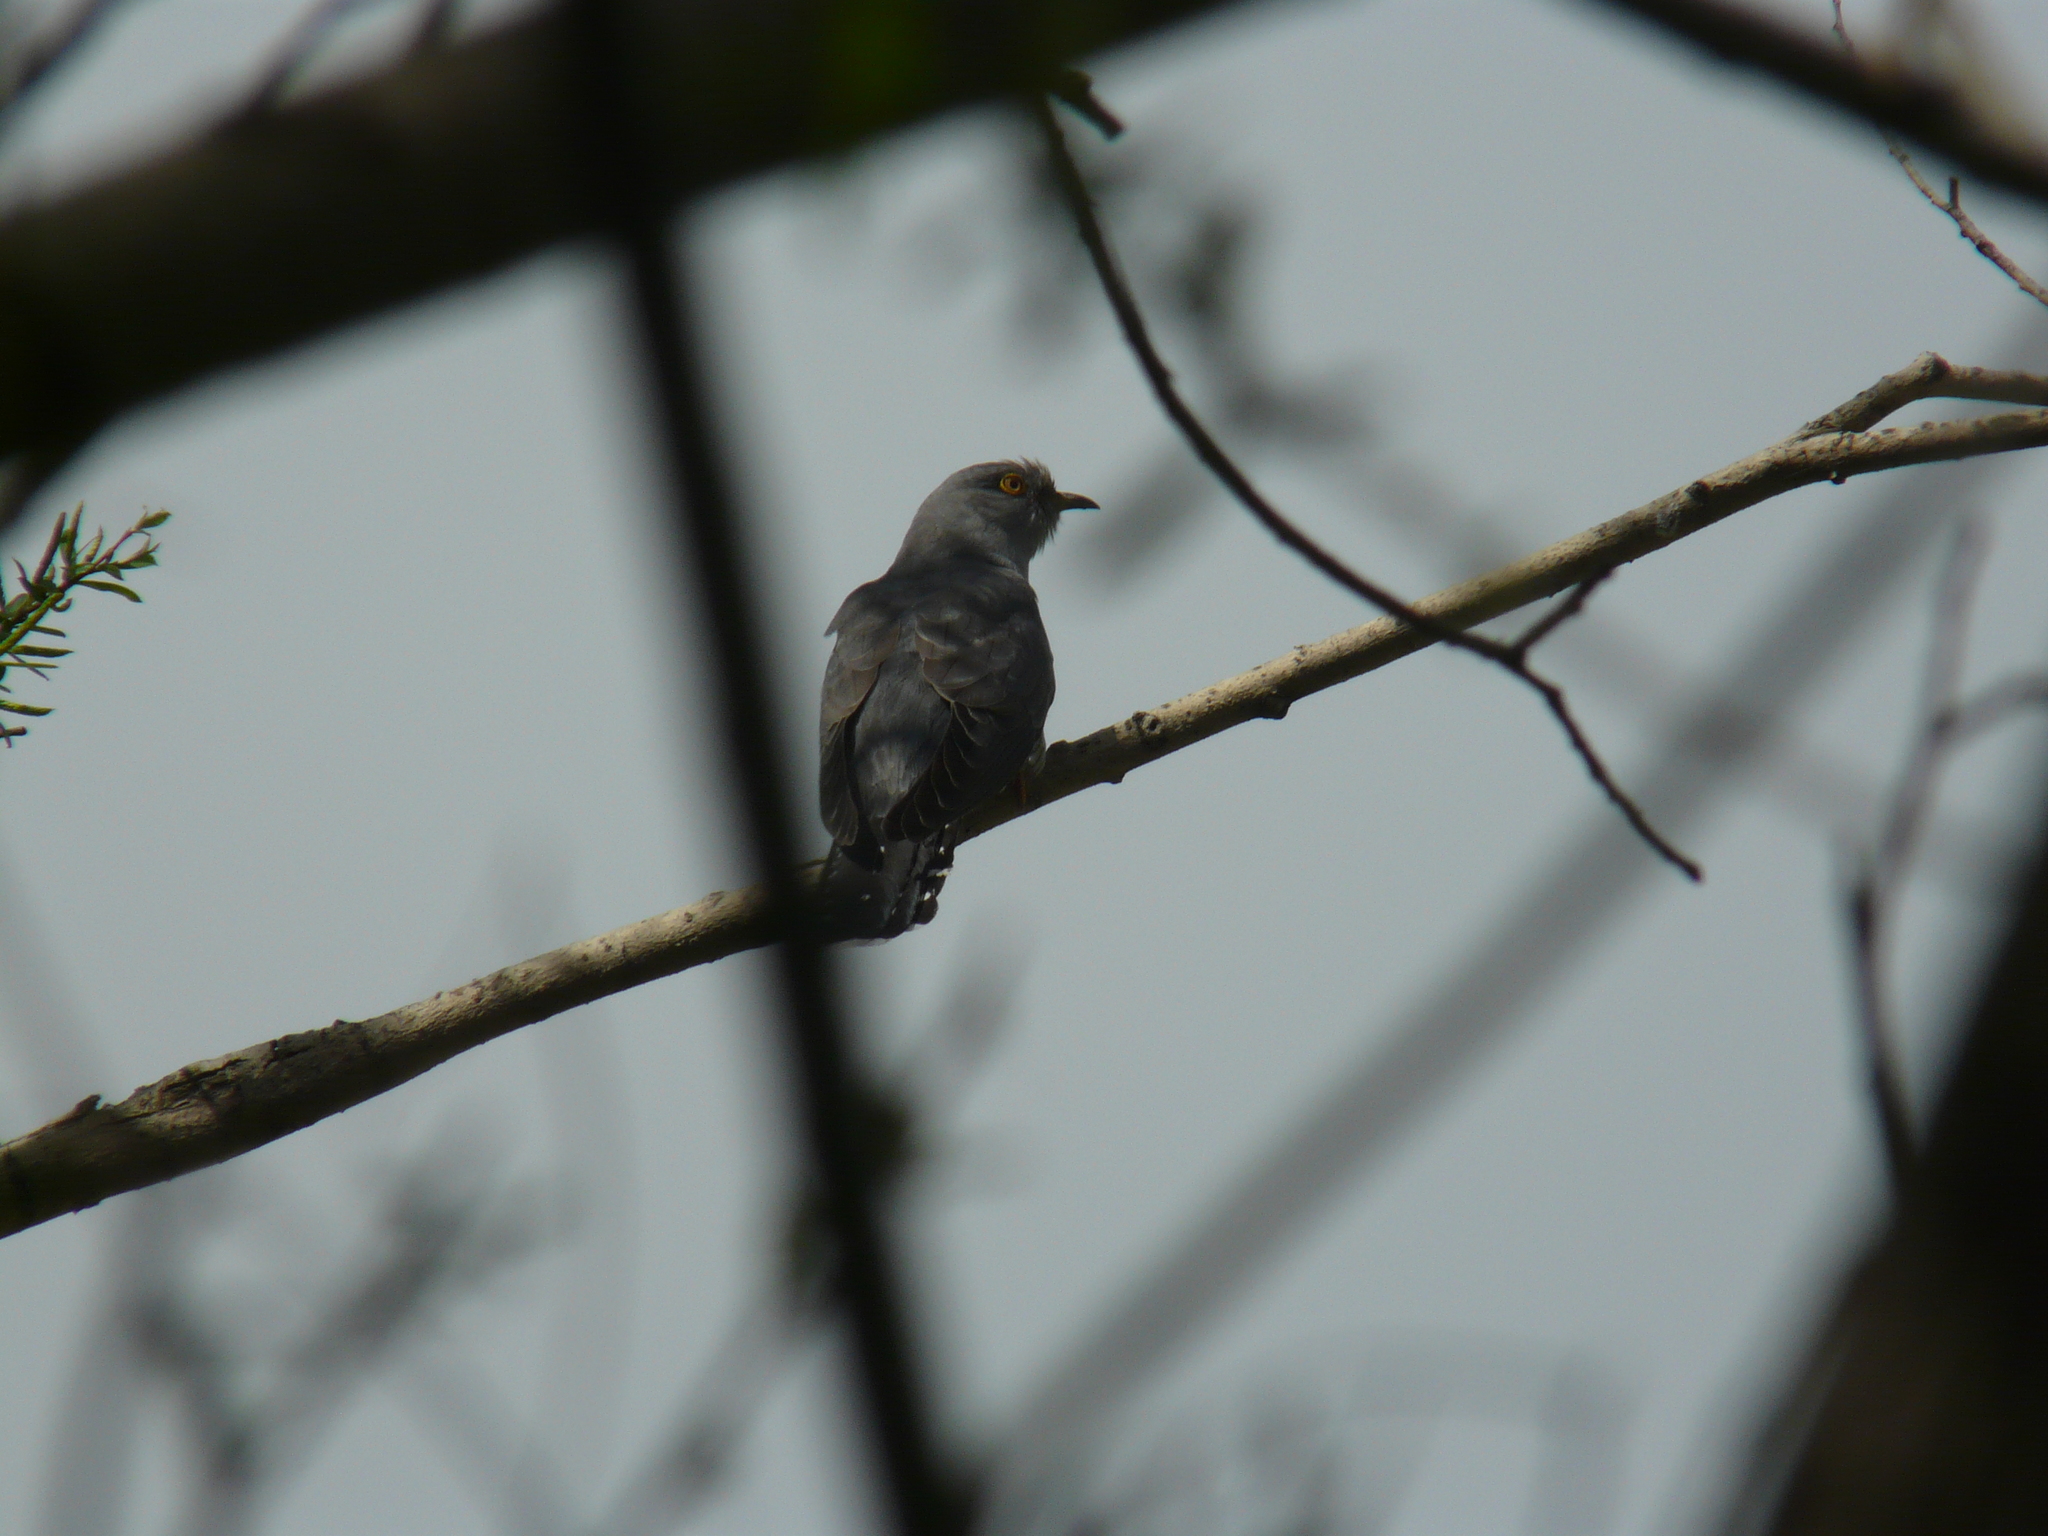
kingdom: Animalia
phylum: Chordata
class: Aves
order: Cuculiformes
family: Cuculidae
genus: Cuculus
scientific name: Cuculus canorus
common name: Common cuckoo
